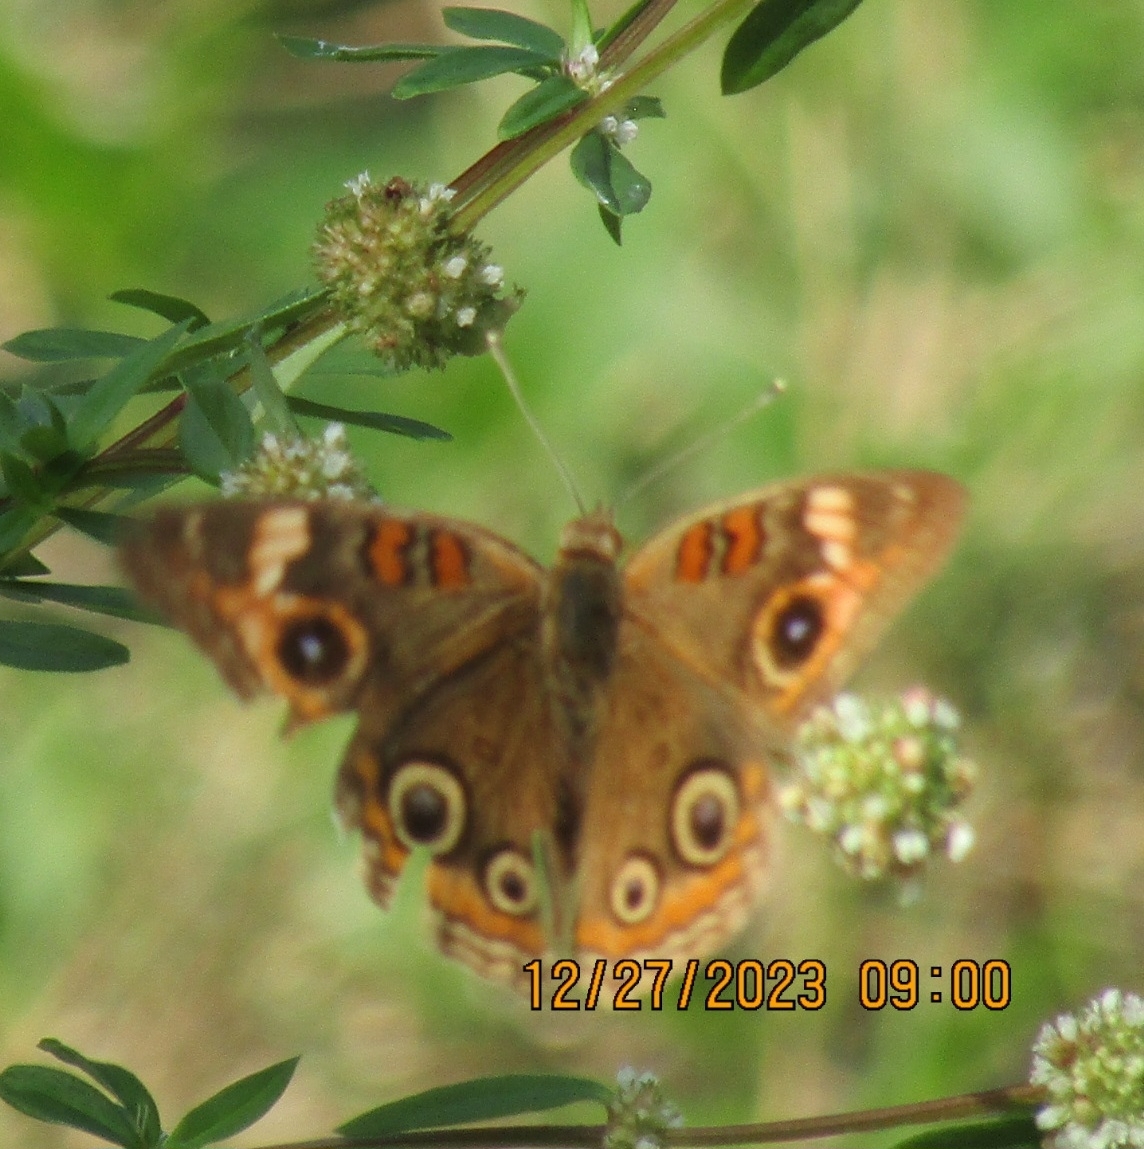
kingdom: Animalia
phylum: Arthropoda
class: Insecta
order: Lepidoptera
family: Nymphalidae
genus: Junonia
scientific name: Junonia neildi
